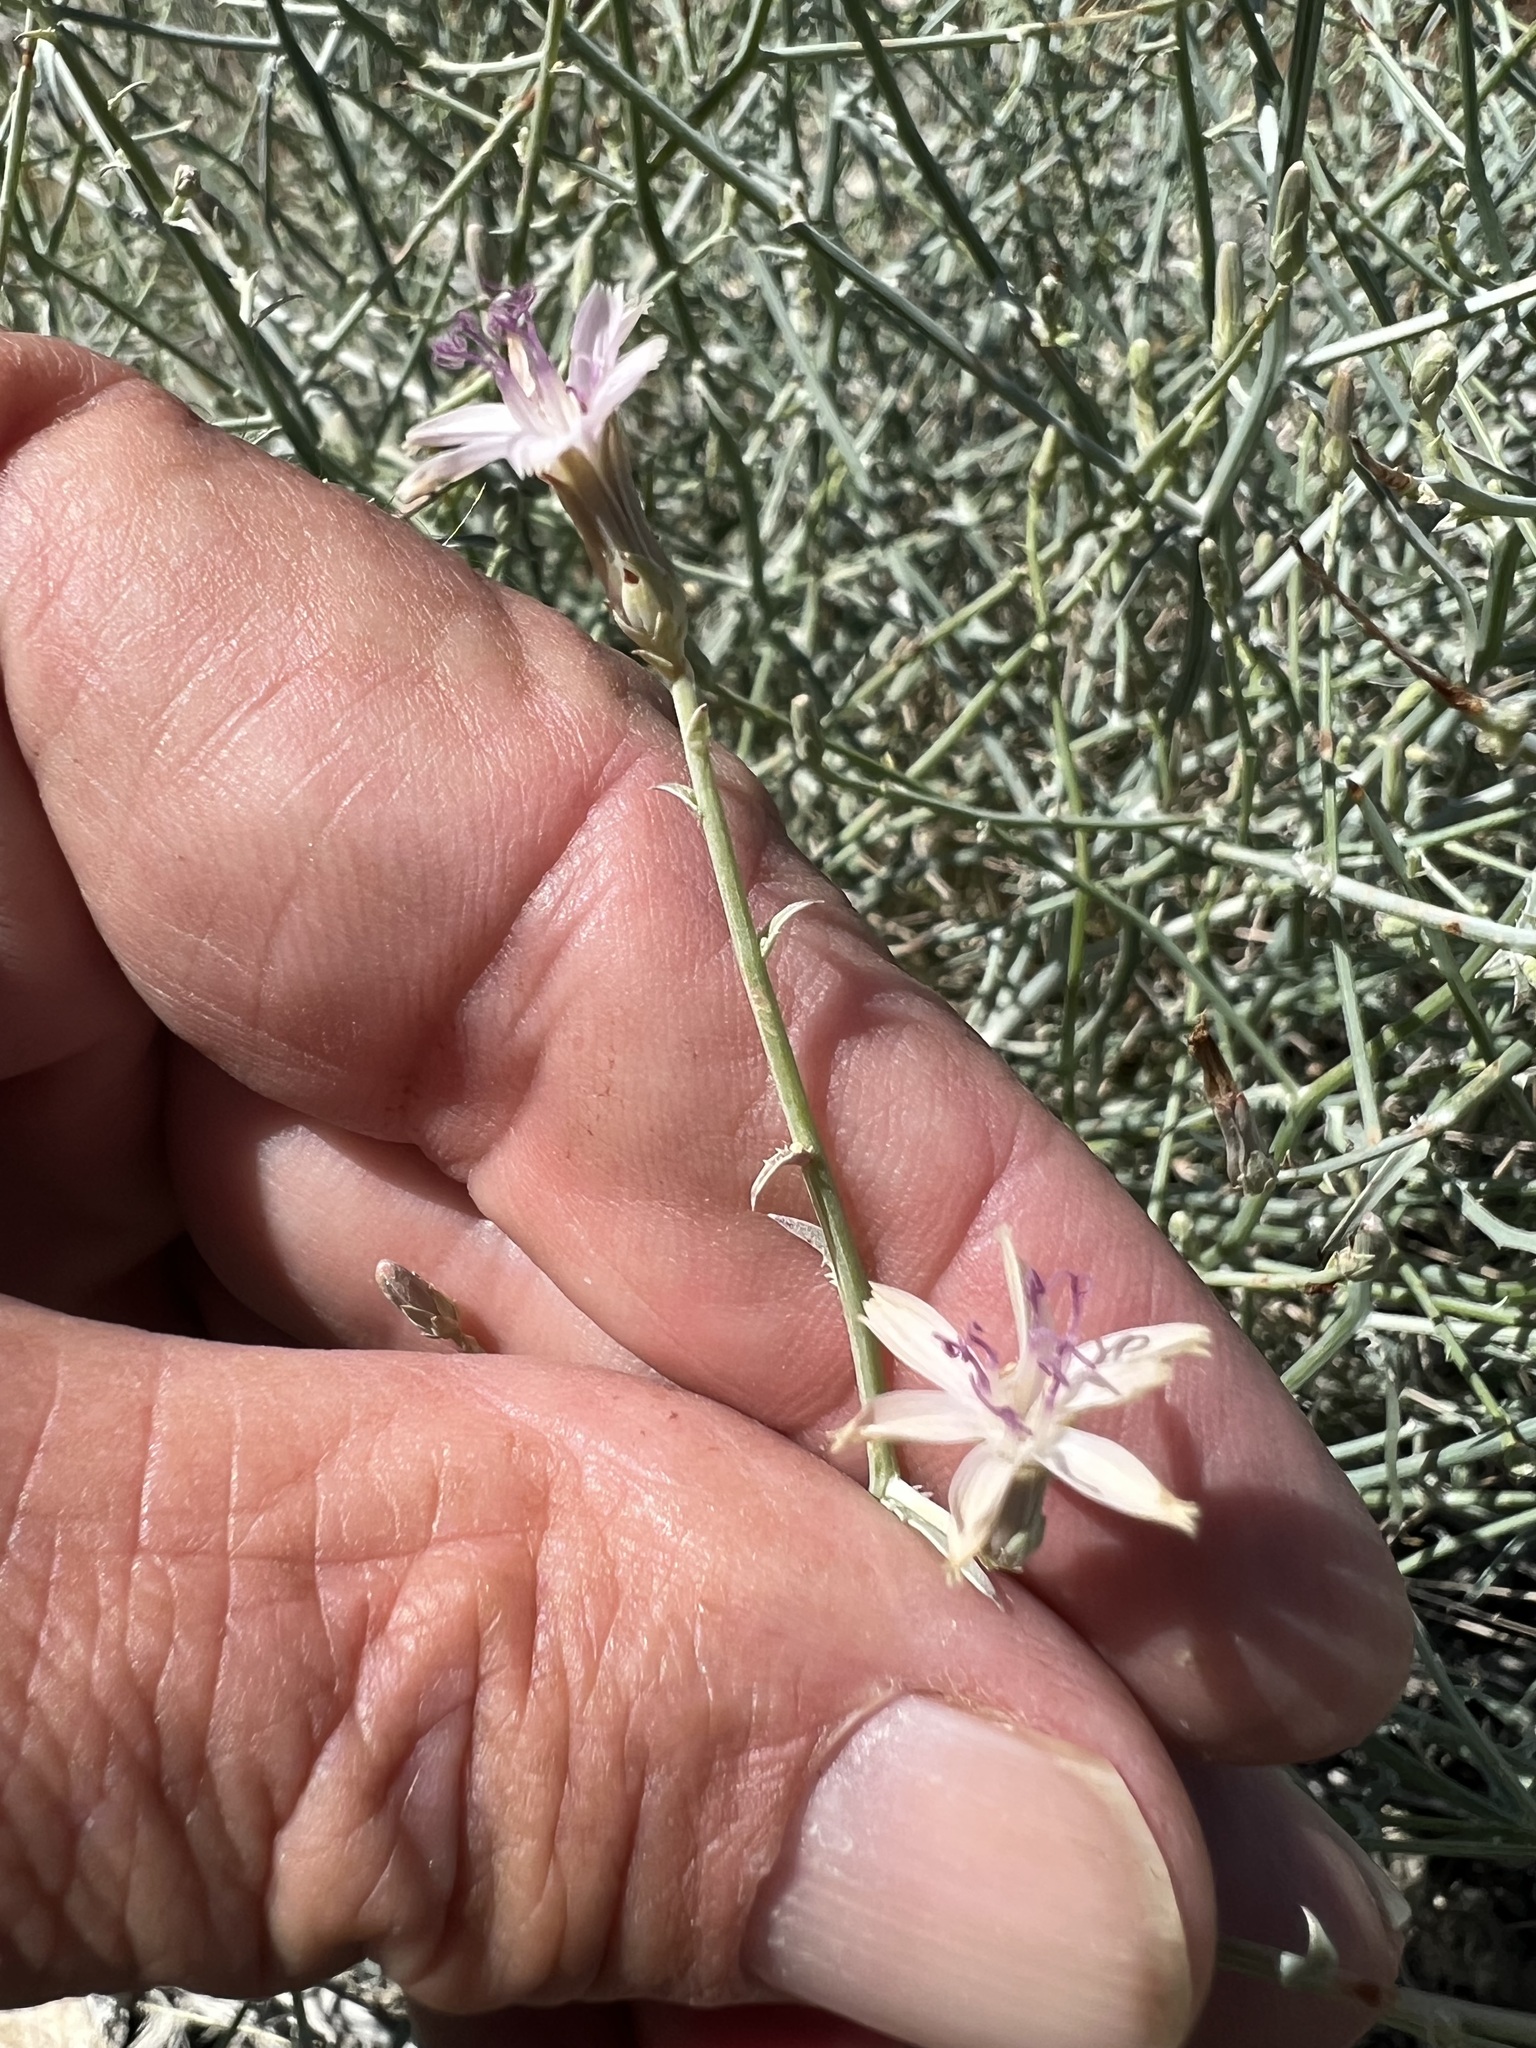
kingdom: Plantae
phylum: Tracheophyta
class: Magnoliopsida
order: Asterales
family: Asteraceae
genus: Stephanomeria
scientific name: Stephanomeria pauciflora
